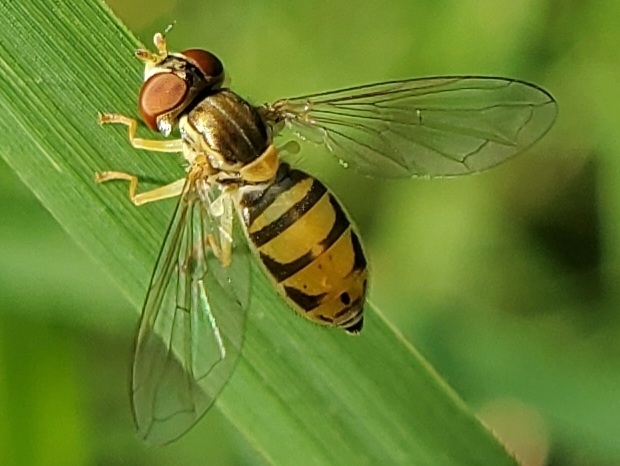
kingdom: Animalia
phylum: Arthropoda
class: Insecta
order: Diptera
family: Syrphidae
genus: Toxomerus
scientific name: Toxomerus marginatus
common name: Syrphid fly
